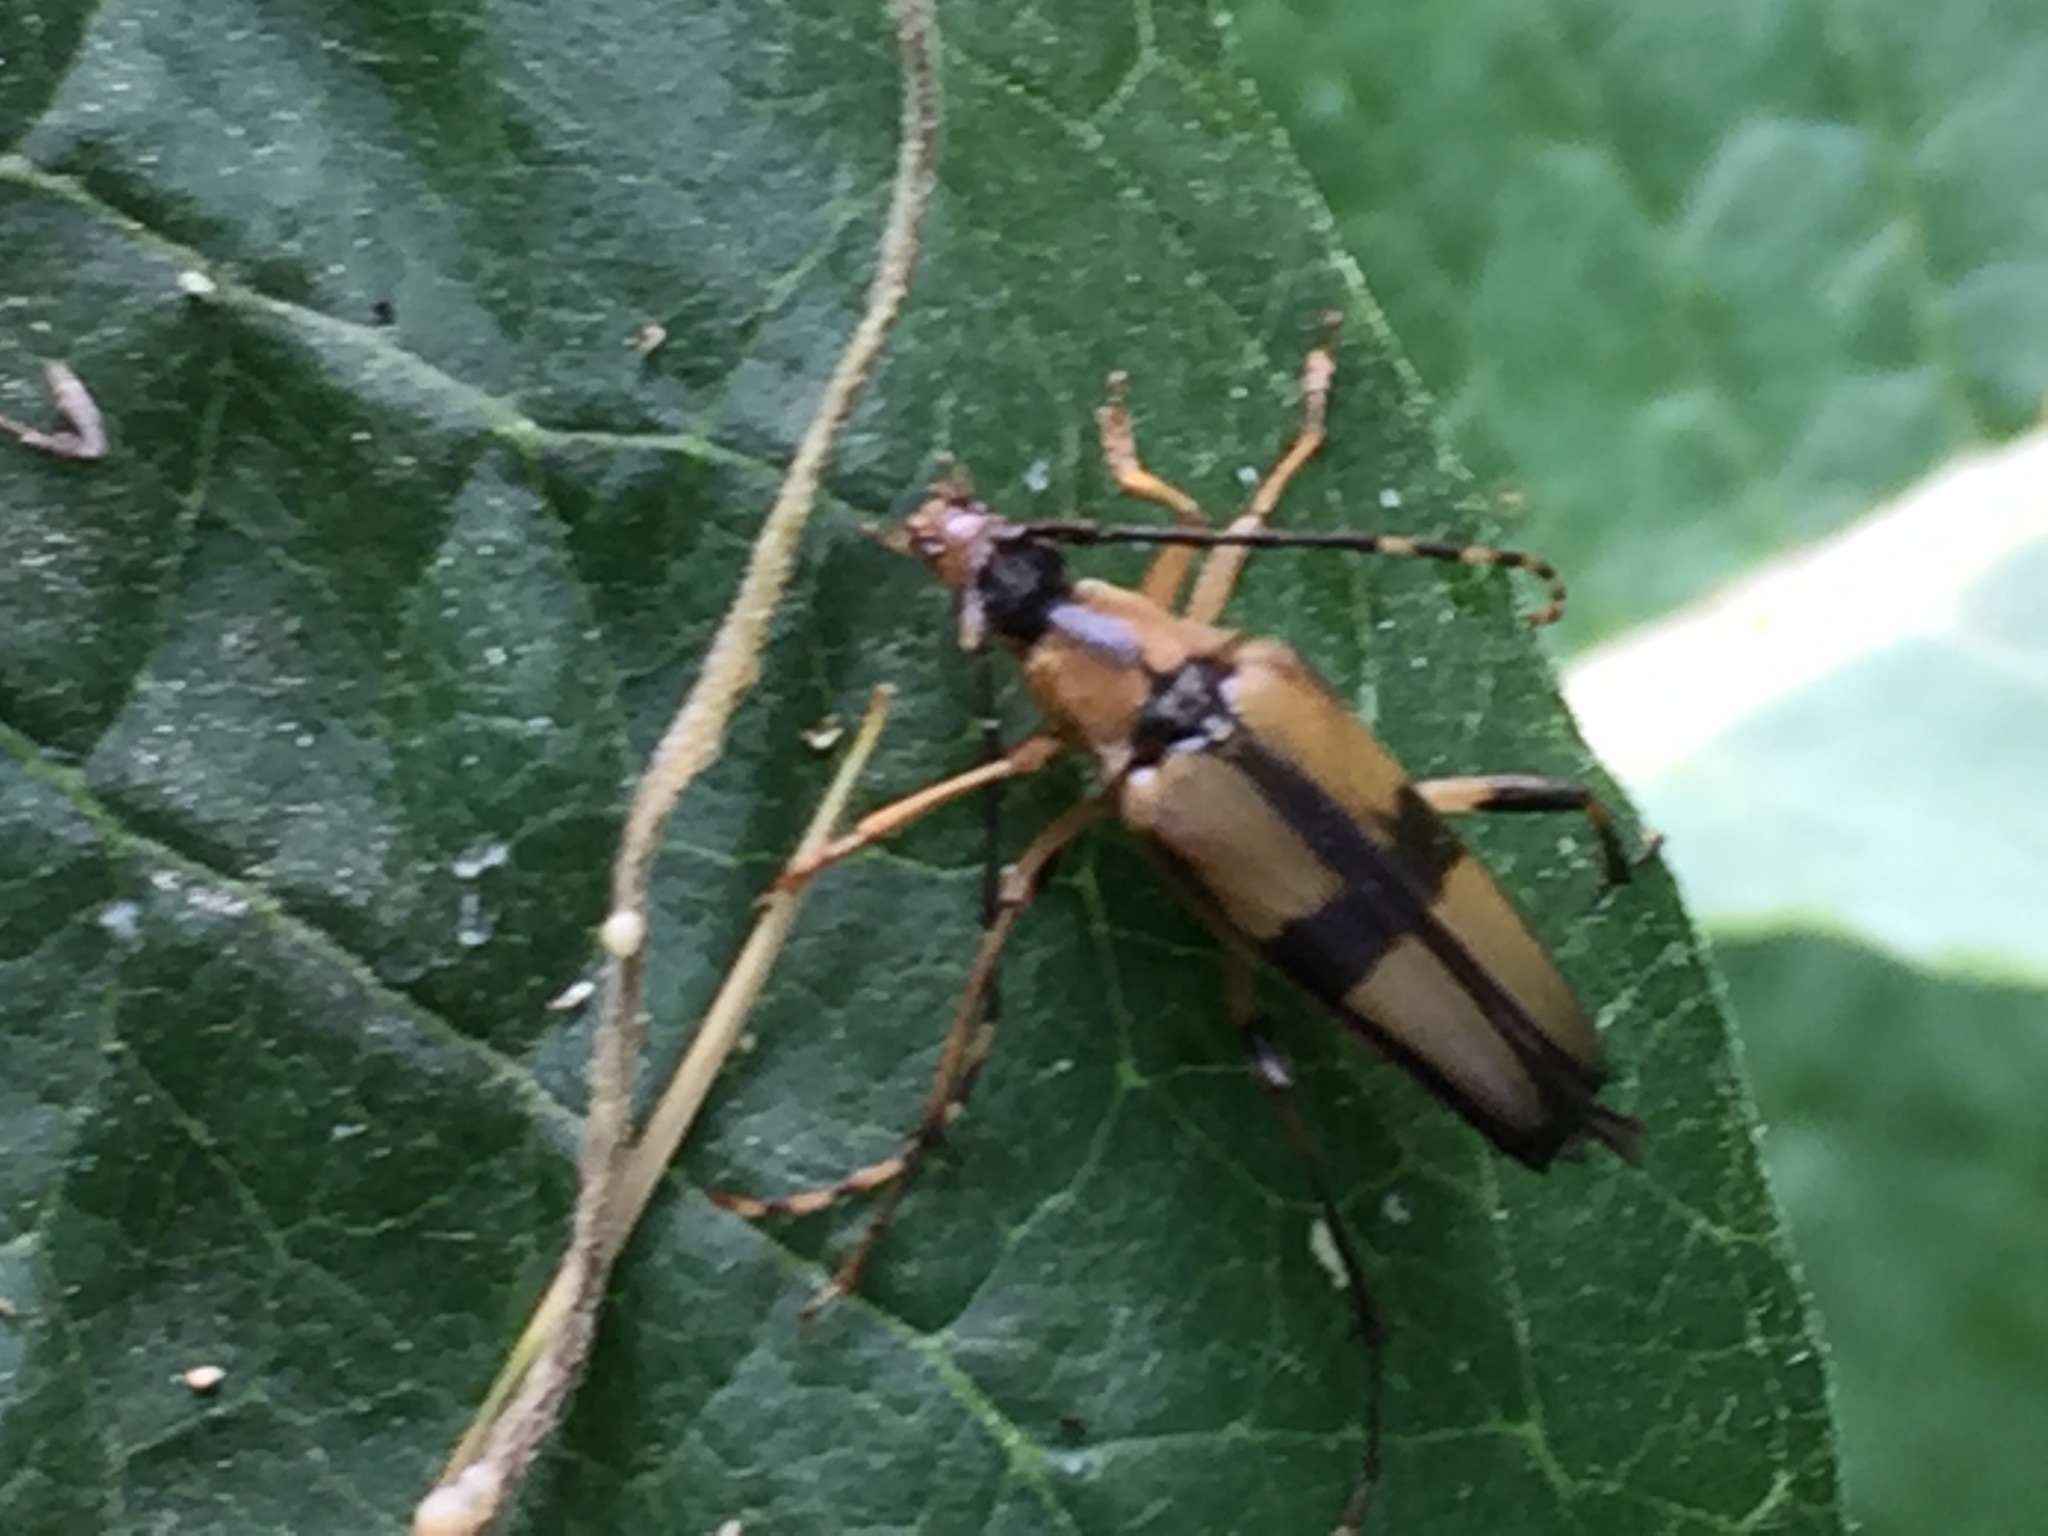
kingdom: Animalia
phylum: Arthropoda
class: Insecta
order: Coleoptera
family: Cerambycidae
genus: Etorofus
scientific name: Etorofus
